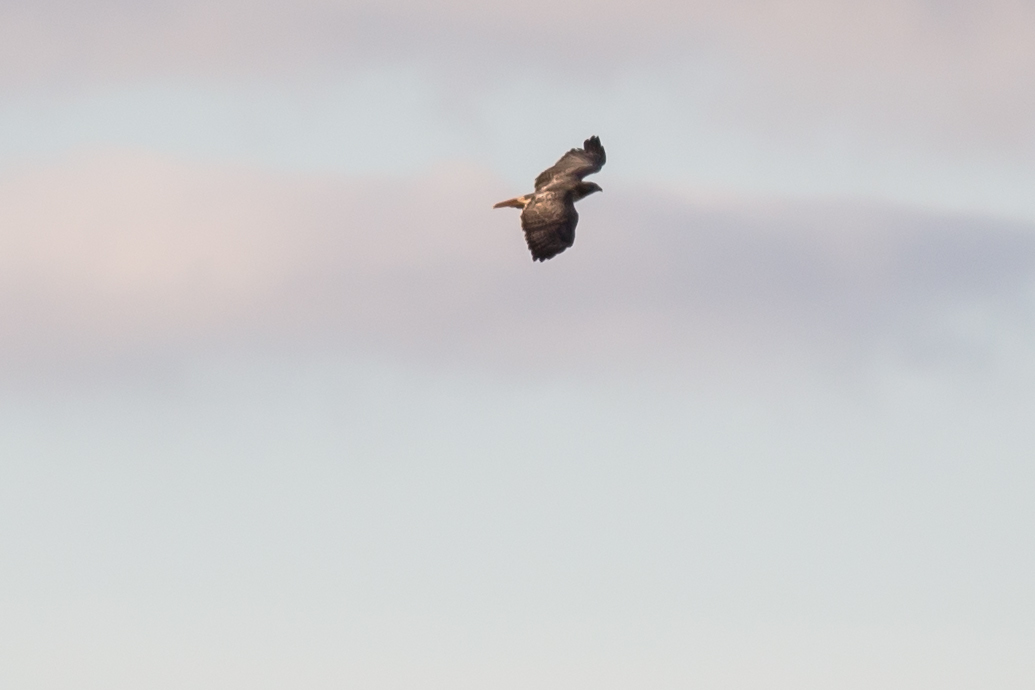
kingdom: Animalia
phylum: Chordata
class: Aves
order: Accipitriformes
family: Accipitridae
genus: Buteo
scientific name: Buteo jamaicensis
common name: Red-tailed hawk
